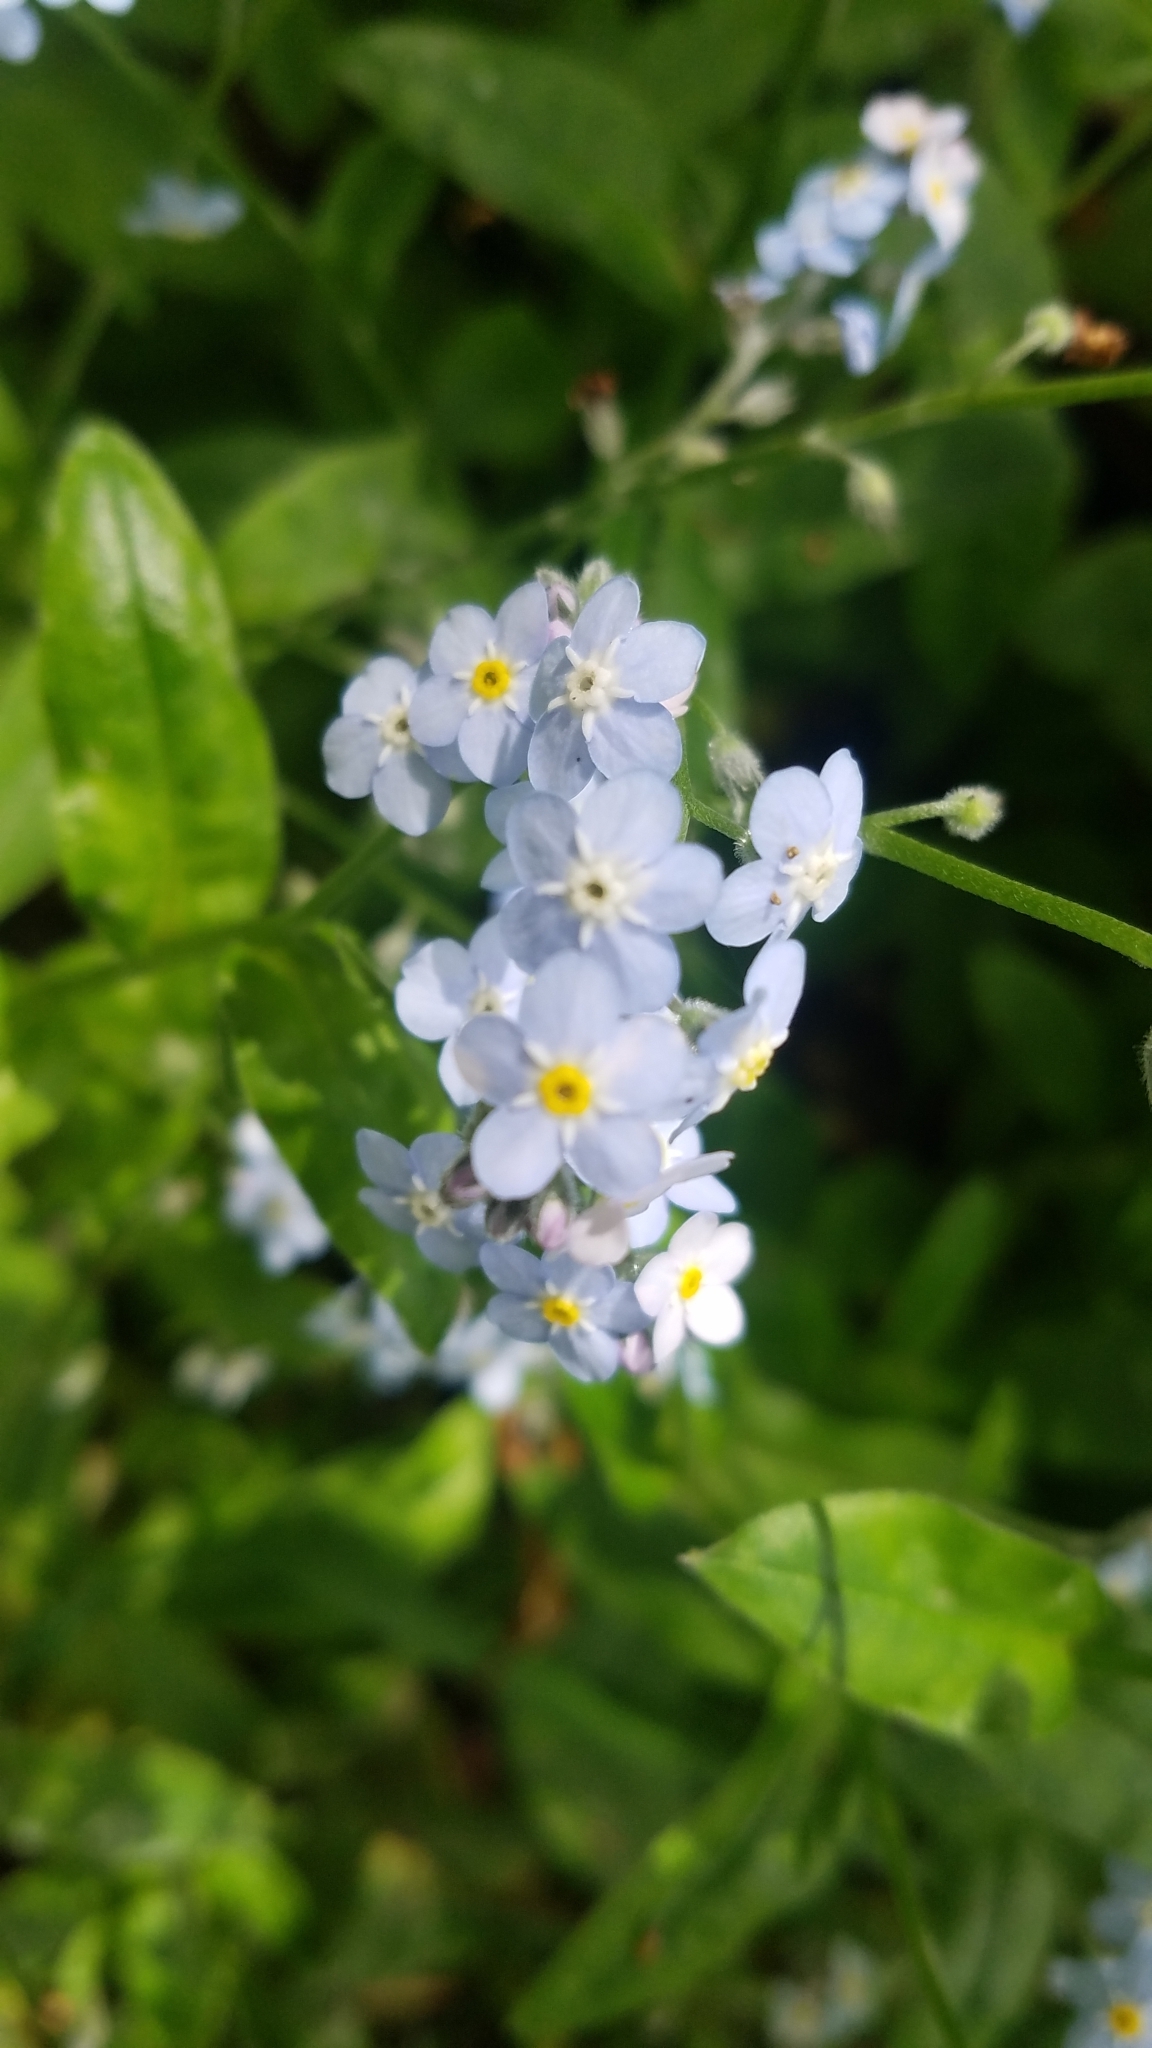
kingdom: Plantae
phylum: Tracheophyta
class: Magnoliopsida
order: Boraginales
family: Boraginaceae
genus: Myosotis
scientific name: Myosotis latifolia
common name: Broadleaf forget-me-not
